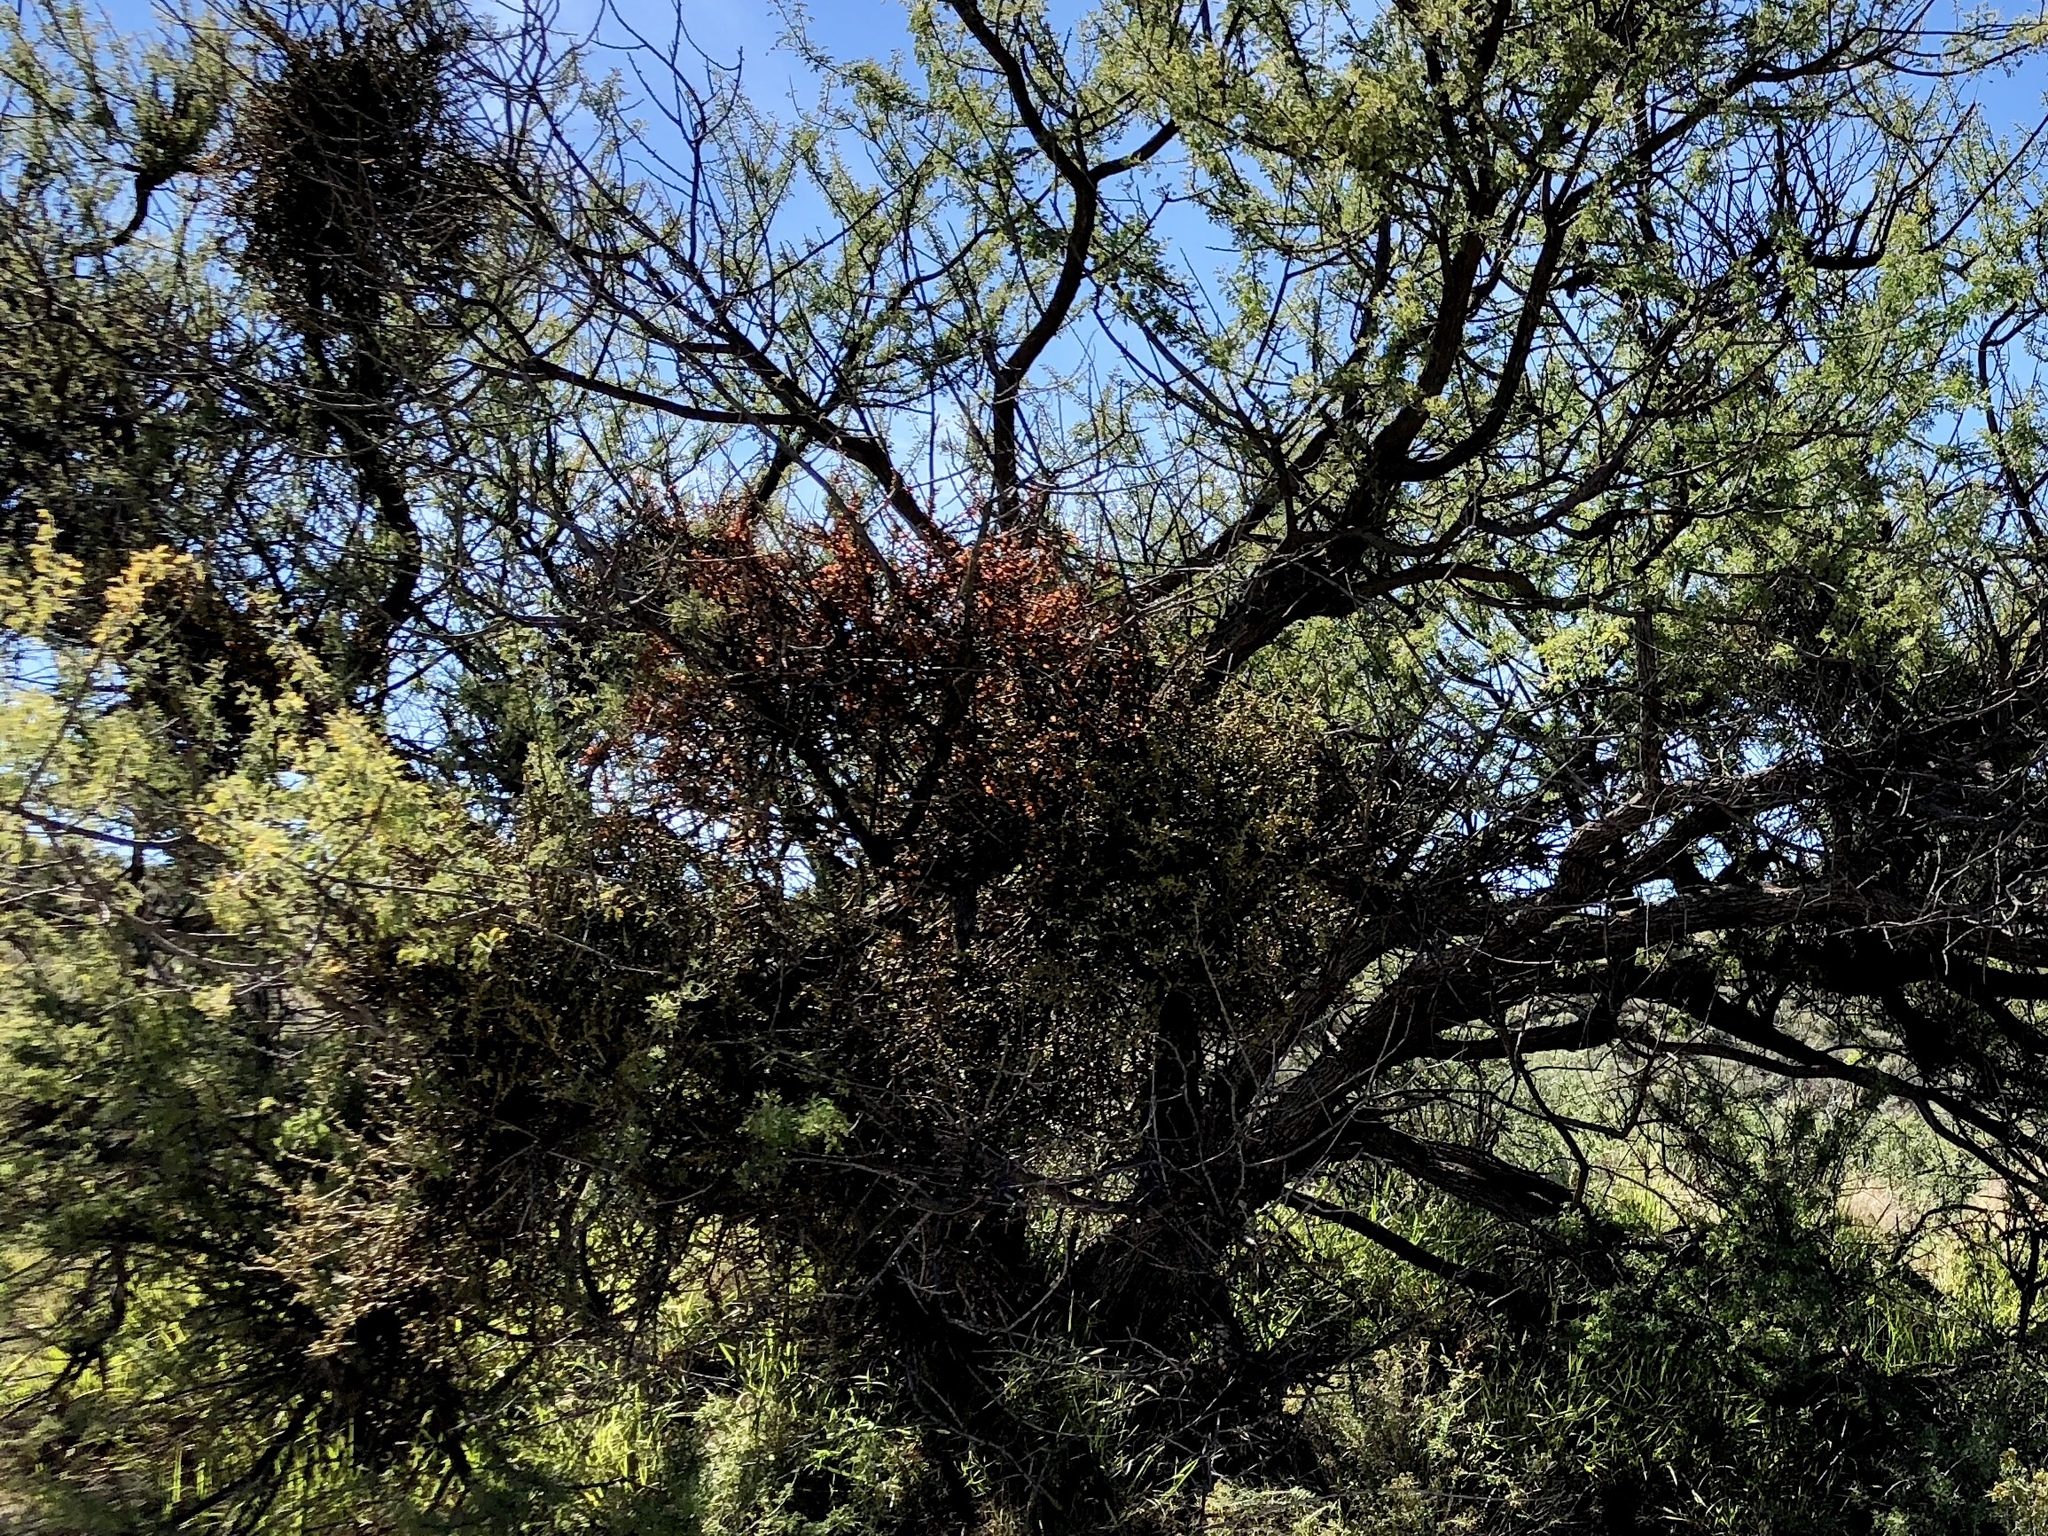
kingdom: Plantae
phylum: Tracheophyta
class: Magnoliopsida
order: Santalales
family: Viscaceae
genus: Phoradendron
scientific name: Phoradendron californicum
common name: Acacia mistletoe
